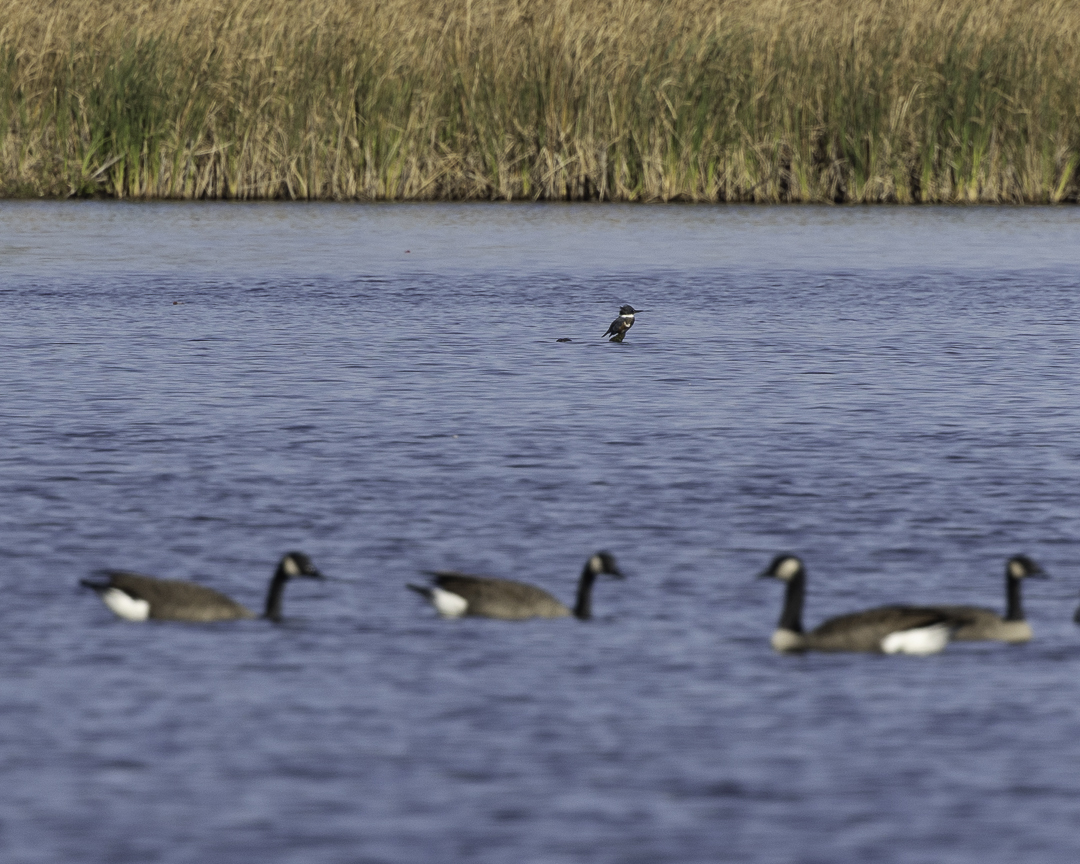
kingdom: Animalia
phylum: Chordata
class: Aves
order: Coraciiformes
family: Alcedinidae
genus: Megaceryle
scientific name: Megaceryle alcyon
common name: Belted kingfisher
